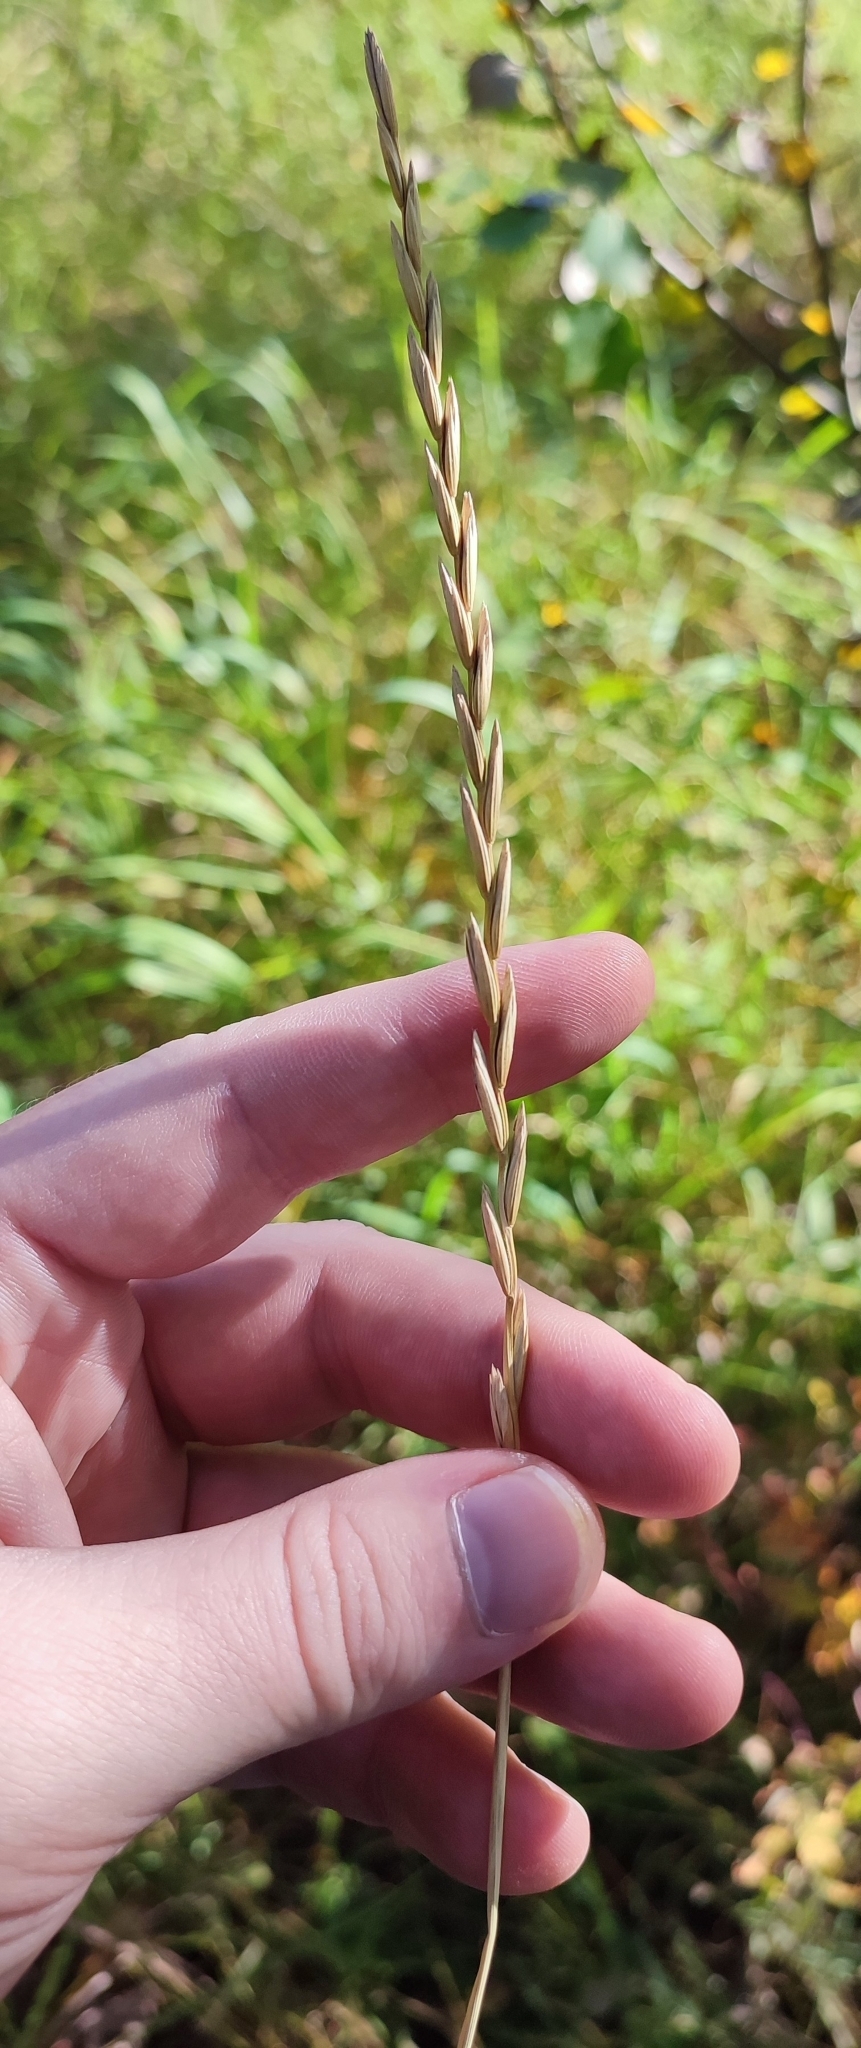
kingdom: Plantae
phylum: Tracheophyta
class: Liliopsida
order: Poales
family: Poaceae
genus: Elymus
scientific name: Elymus repens
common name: Quackgrass
